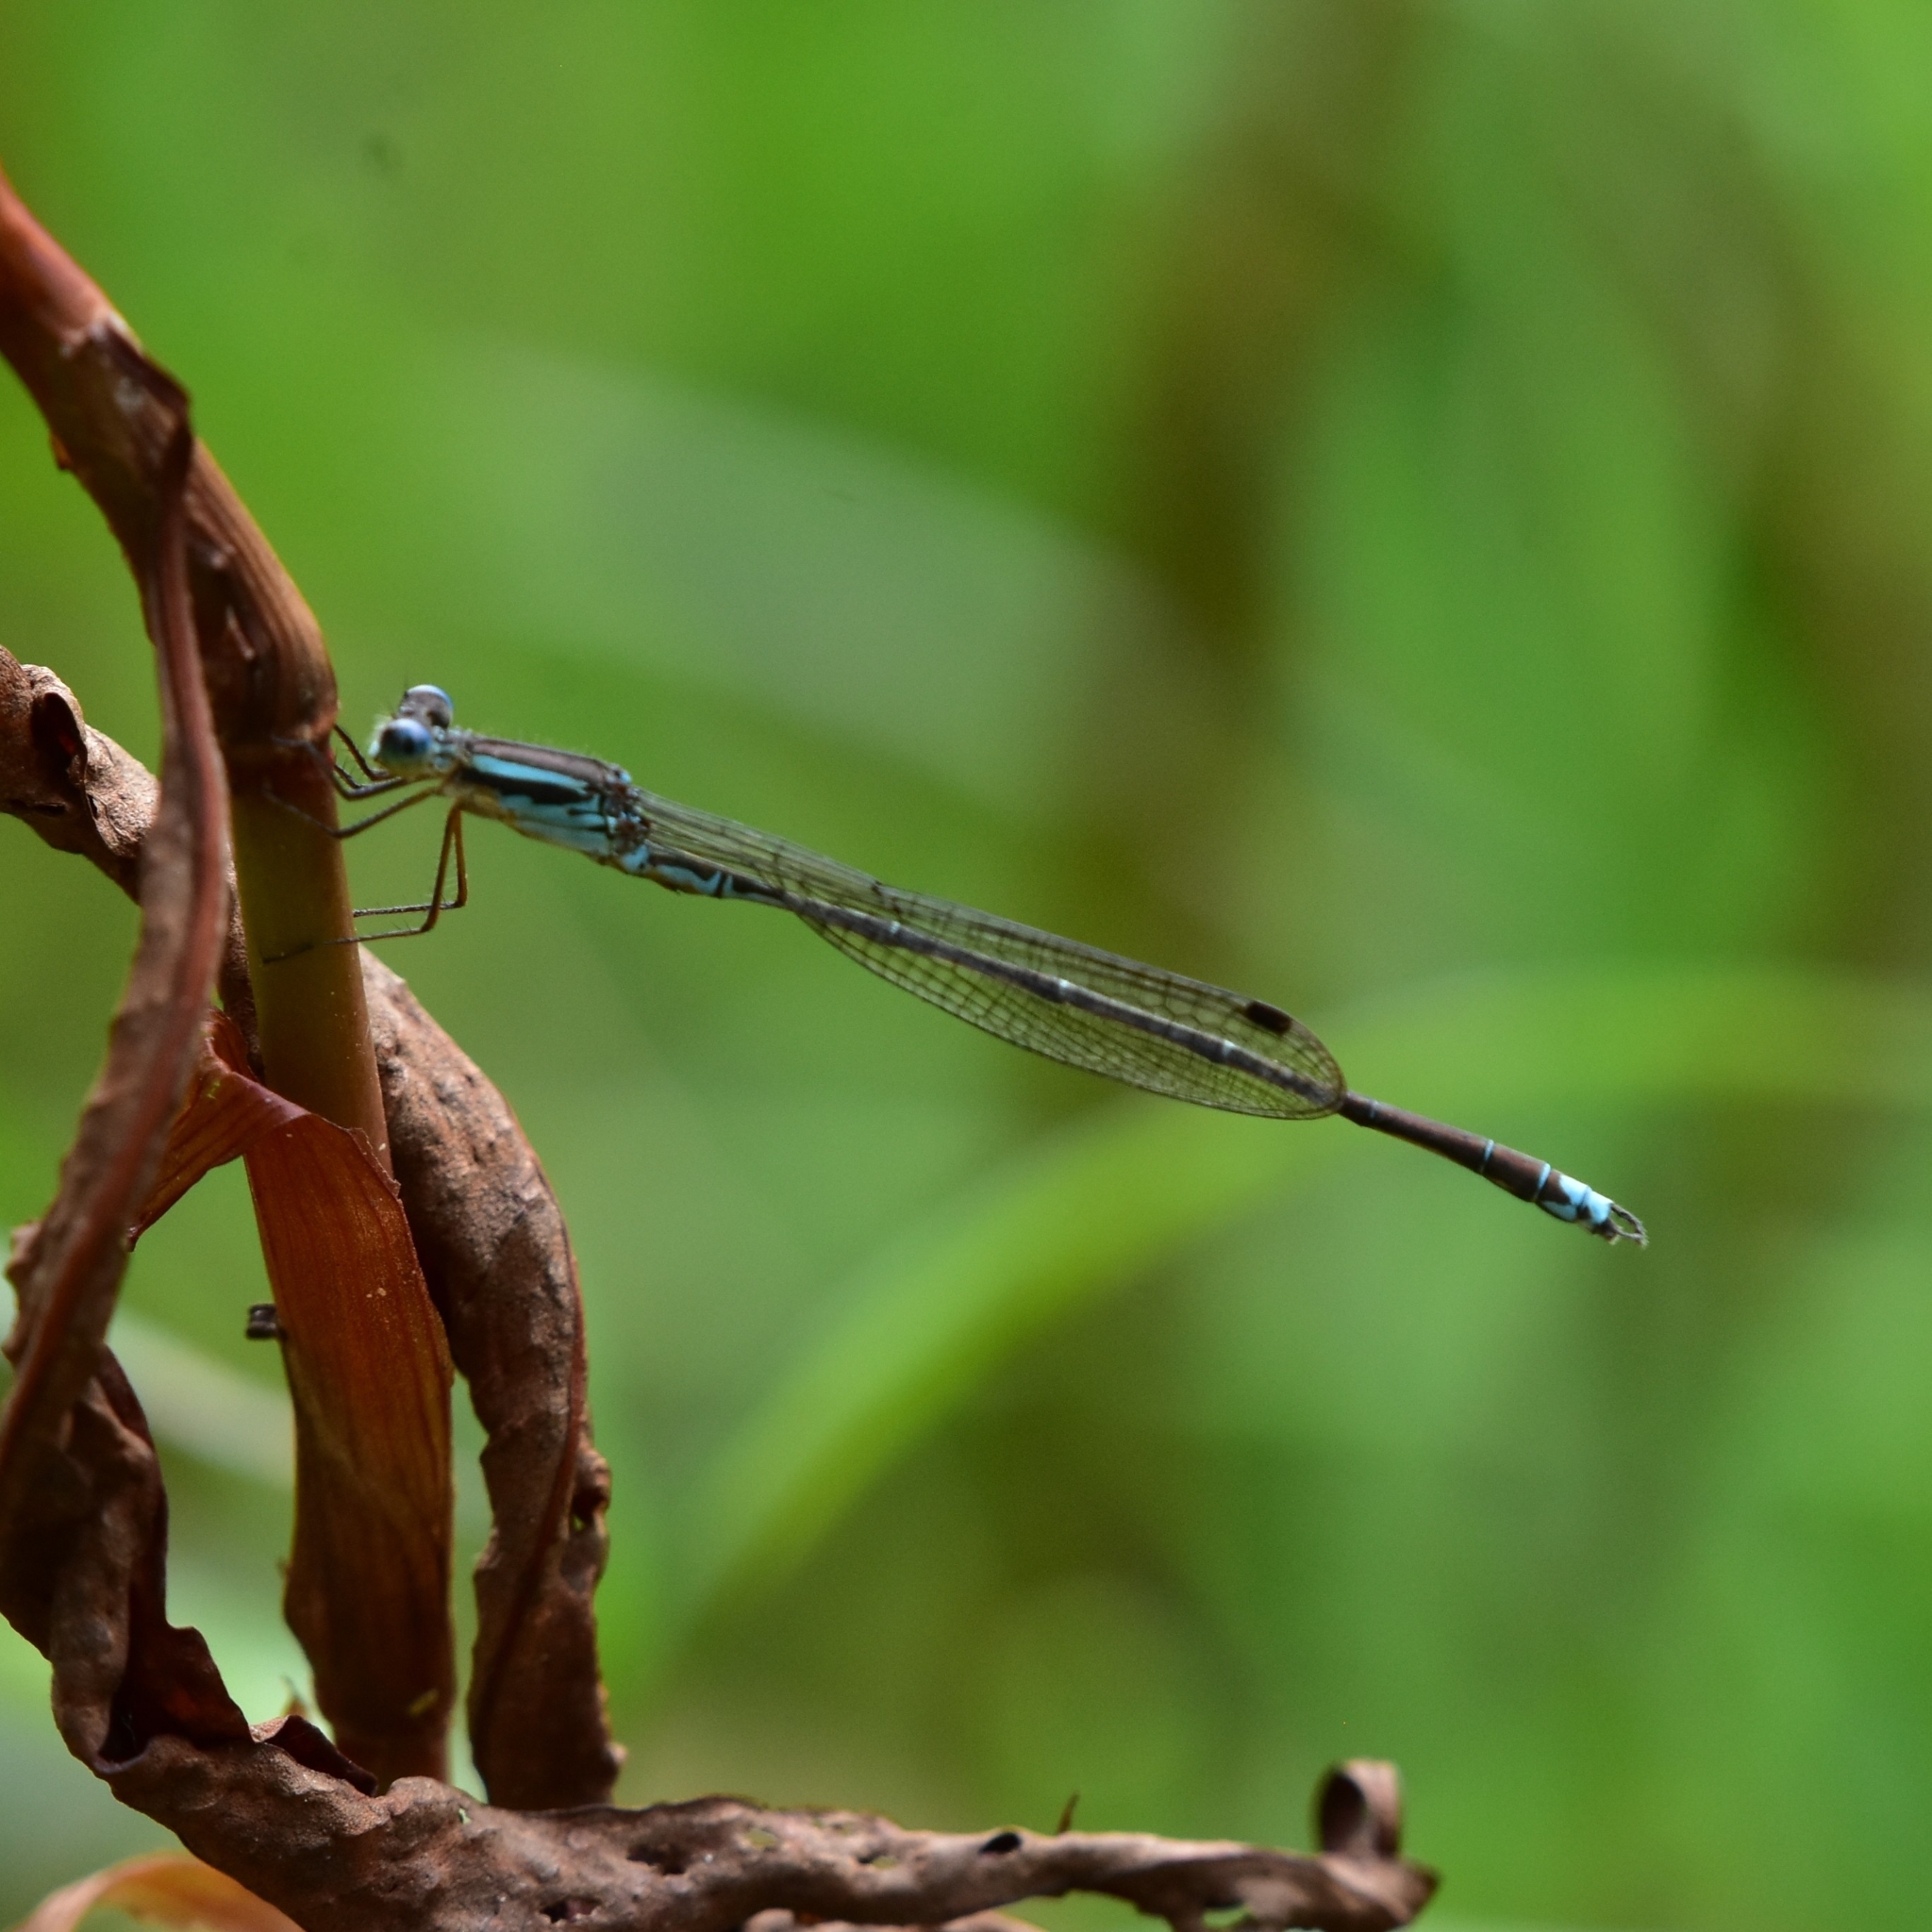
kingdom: Animalia
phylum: Arthropoda
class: Insecta
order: Odonata
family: Lestidae
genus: Indolestes
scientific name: Indolestes gracilis
